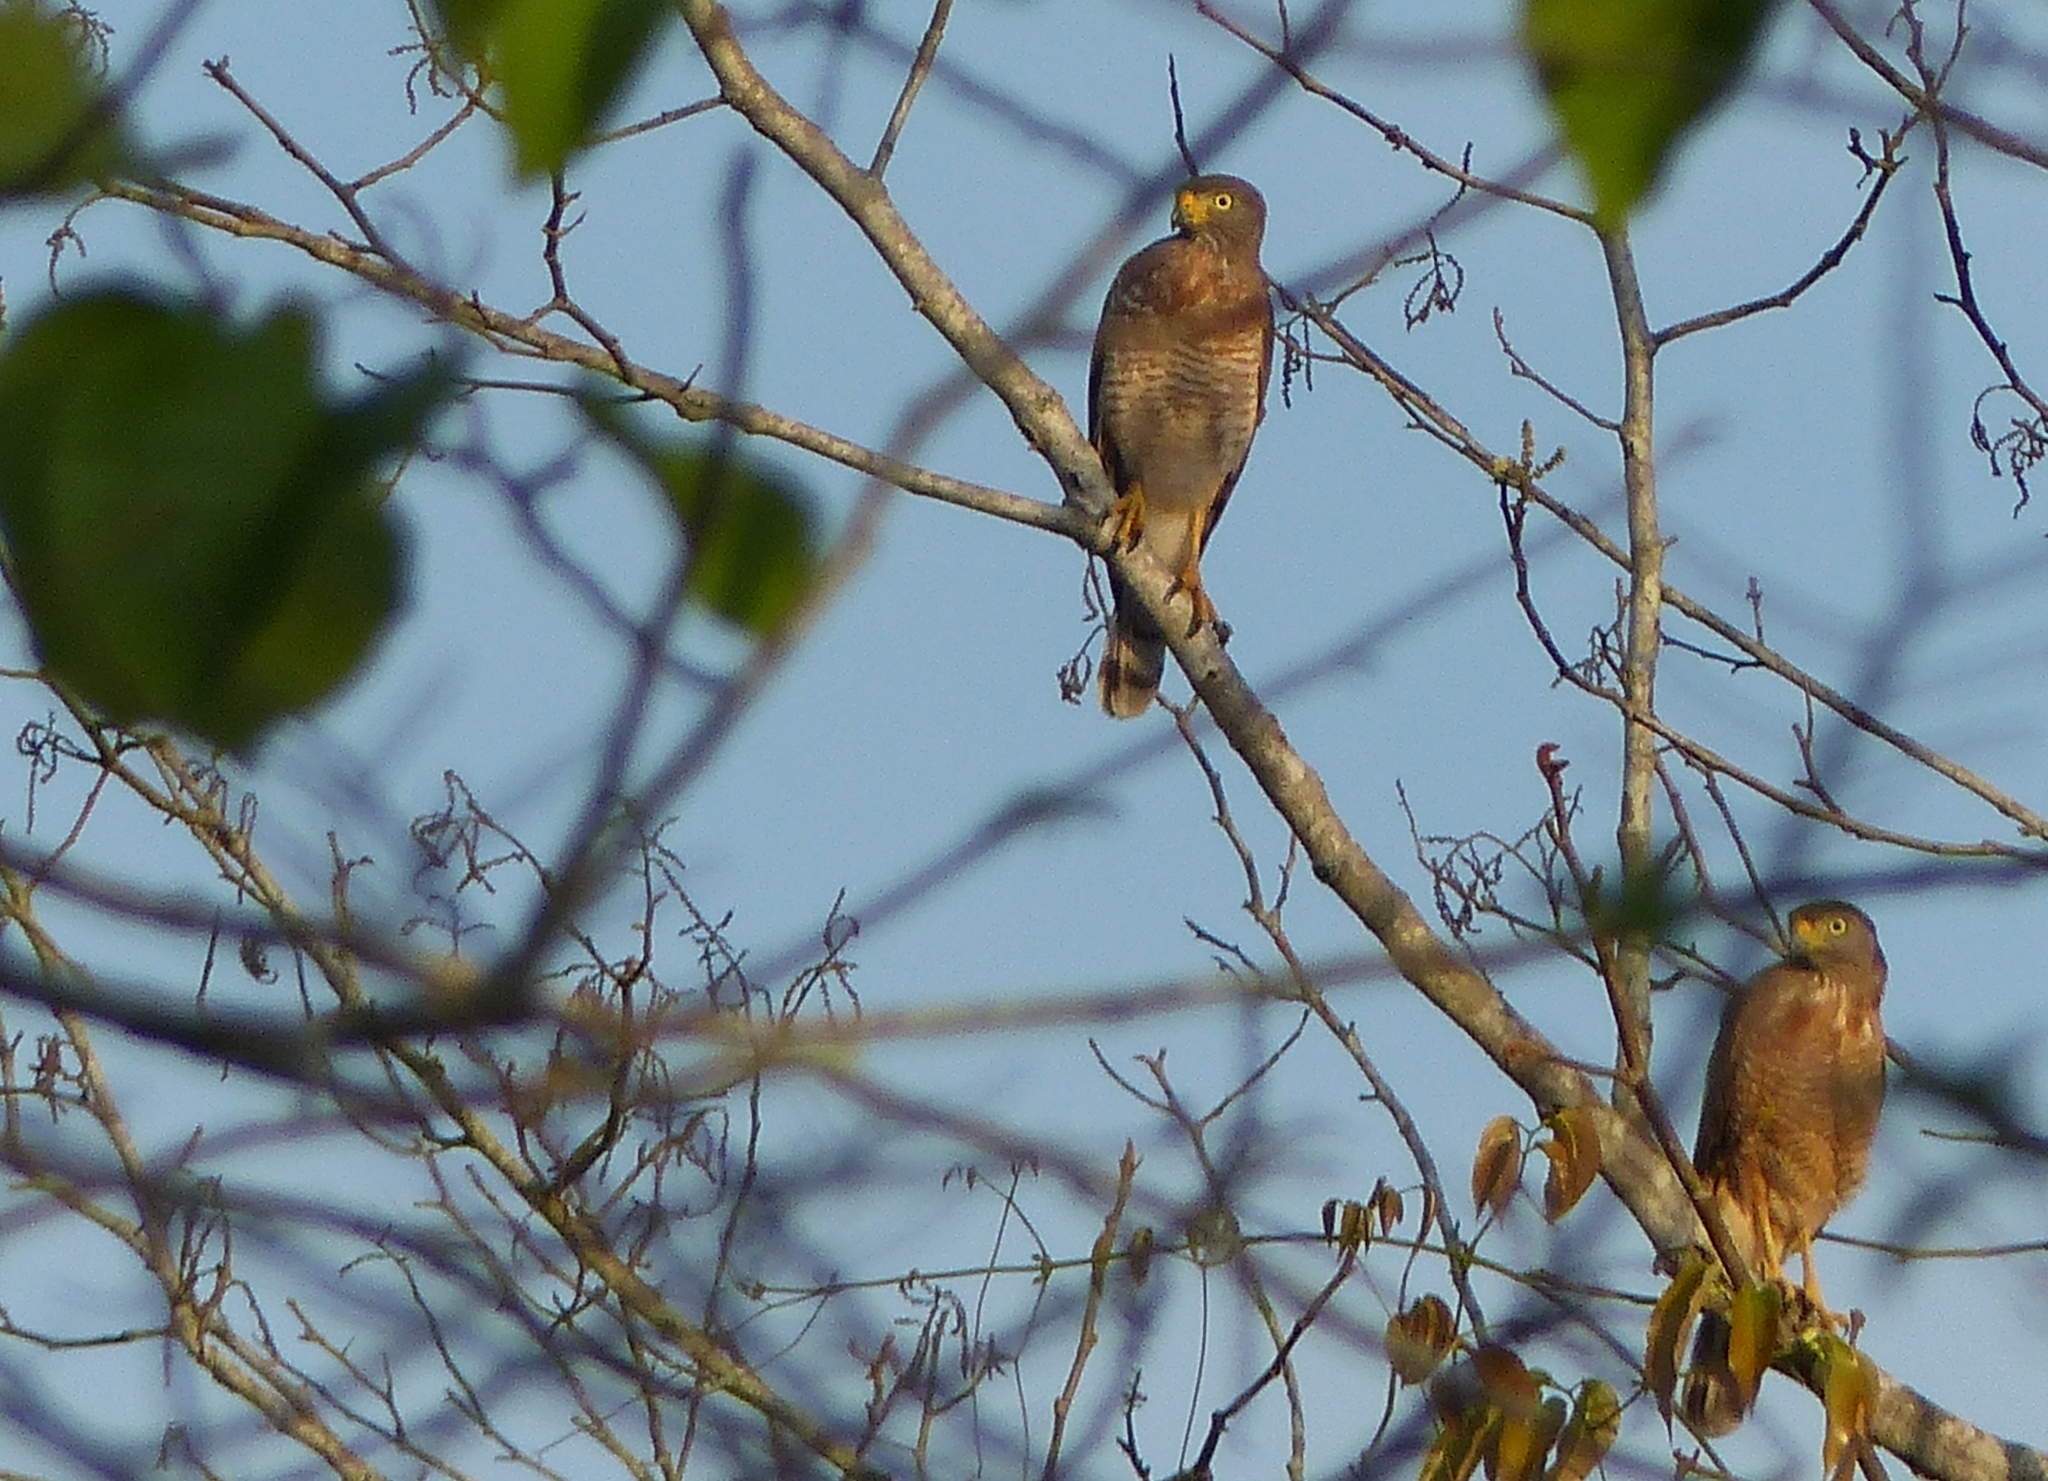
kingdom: Animalia
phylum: Chordata
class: Aves
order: Accipitriformes
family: Accipitridae
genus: Rupornis
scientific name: Rupornis magnirostris
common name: Roadside hawk
